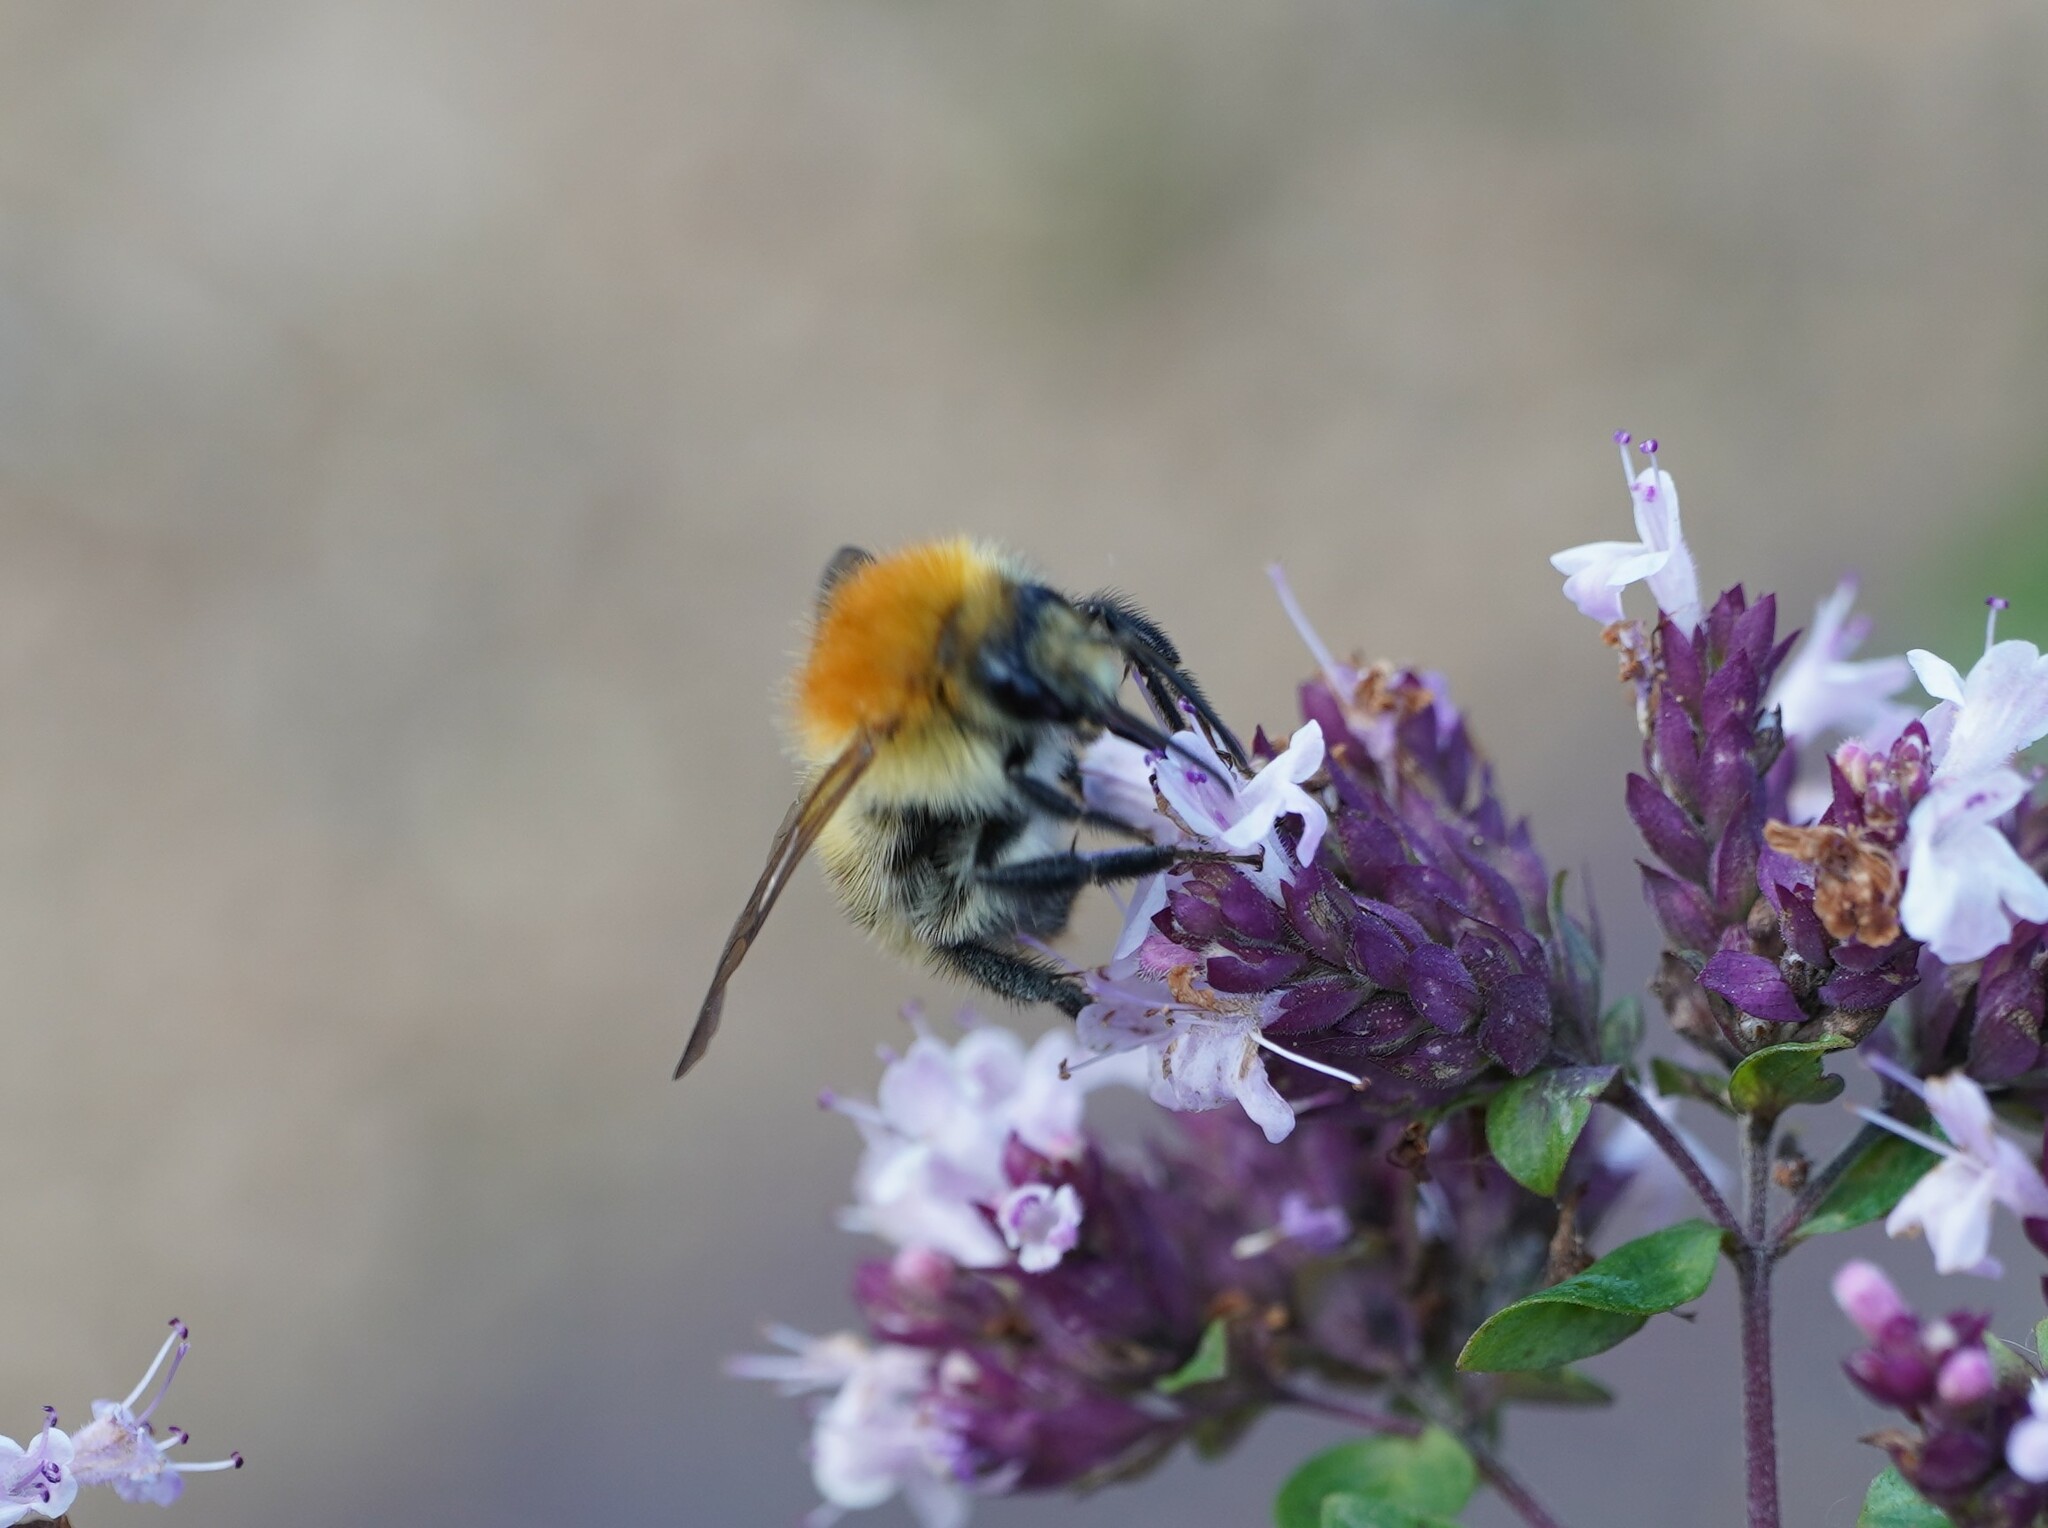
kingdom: Animalia
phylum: Arthropoda
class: Insecta
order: Hymenoptera
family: Apidae
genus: Bombus
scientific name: Bombus pascuorum
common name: Common carder bee
